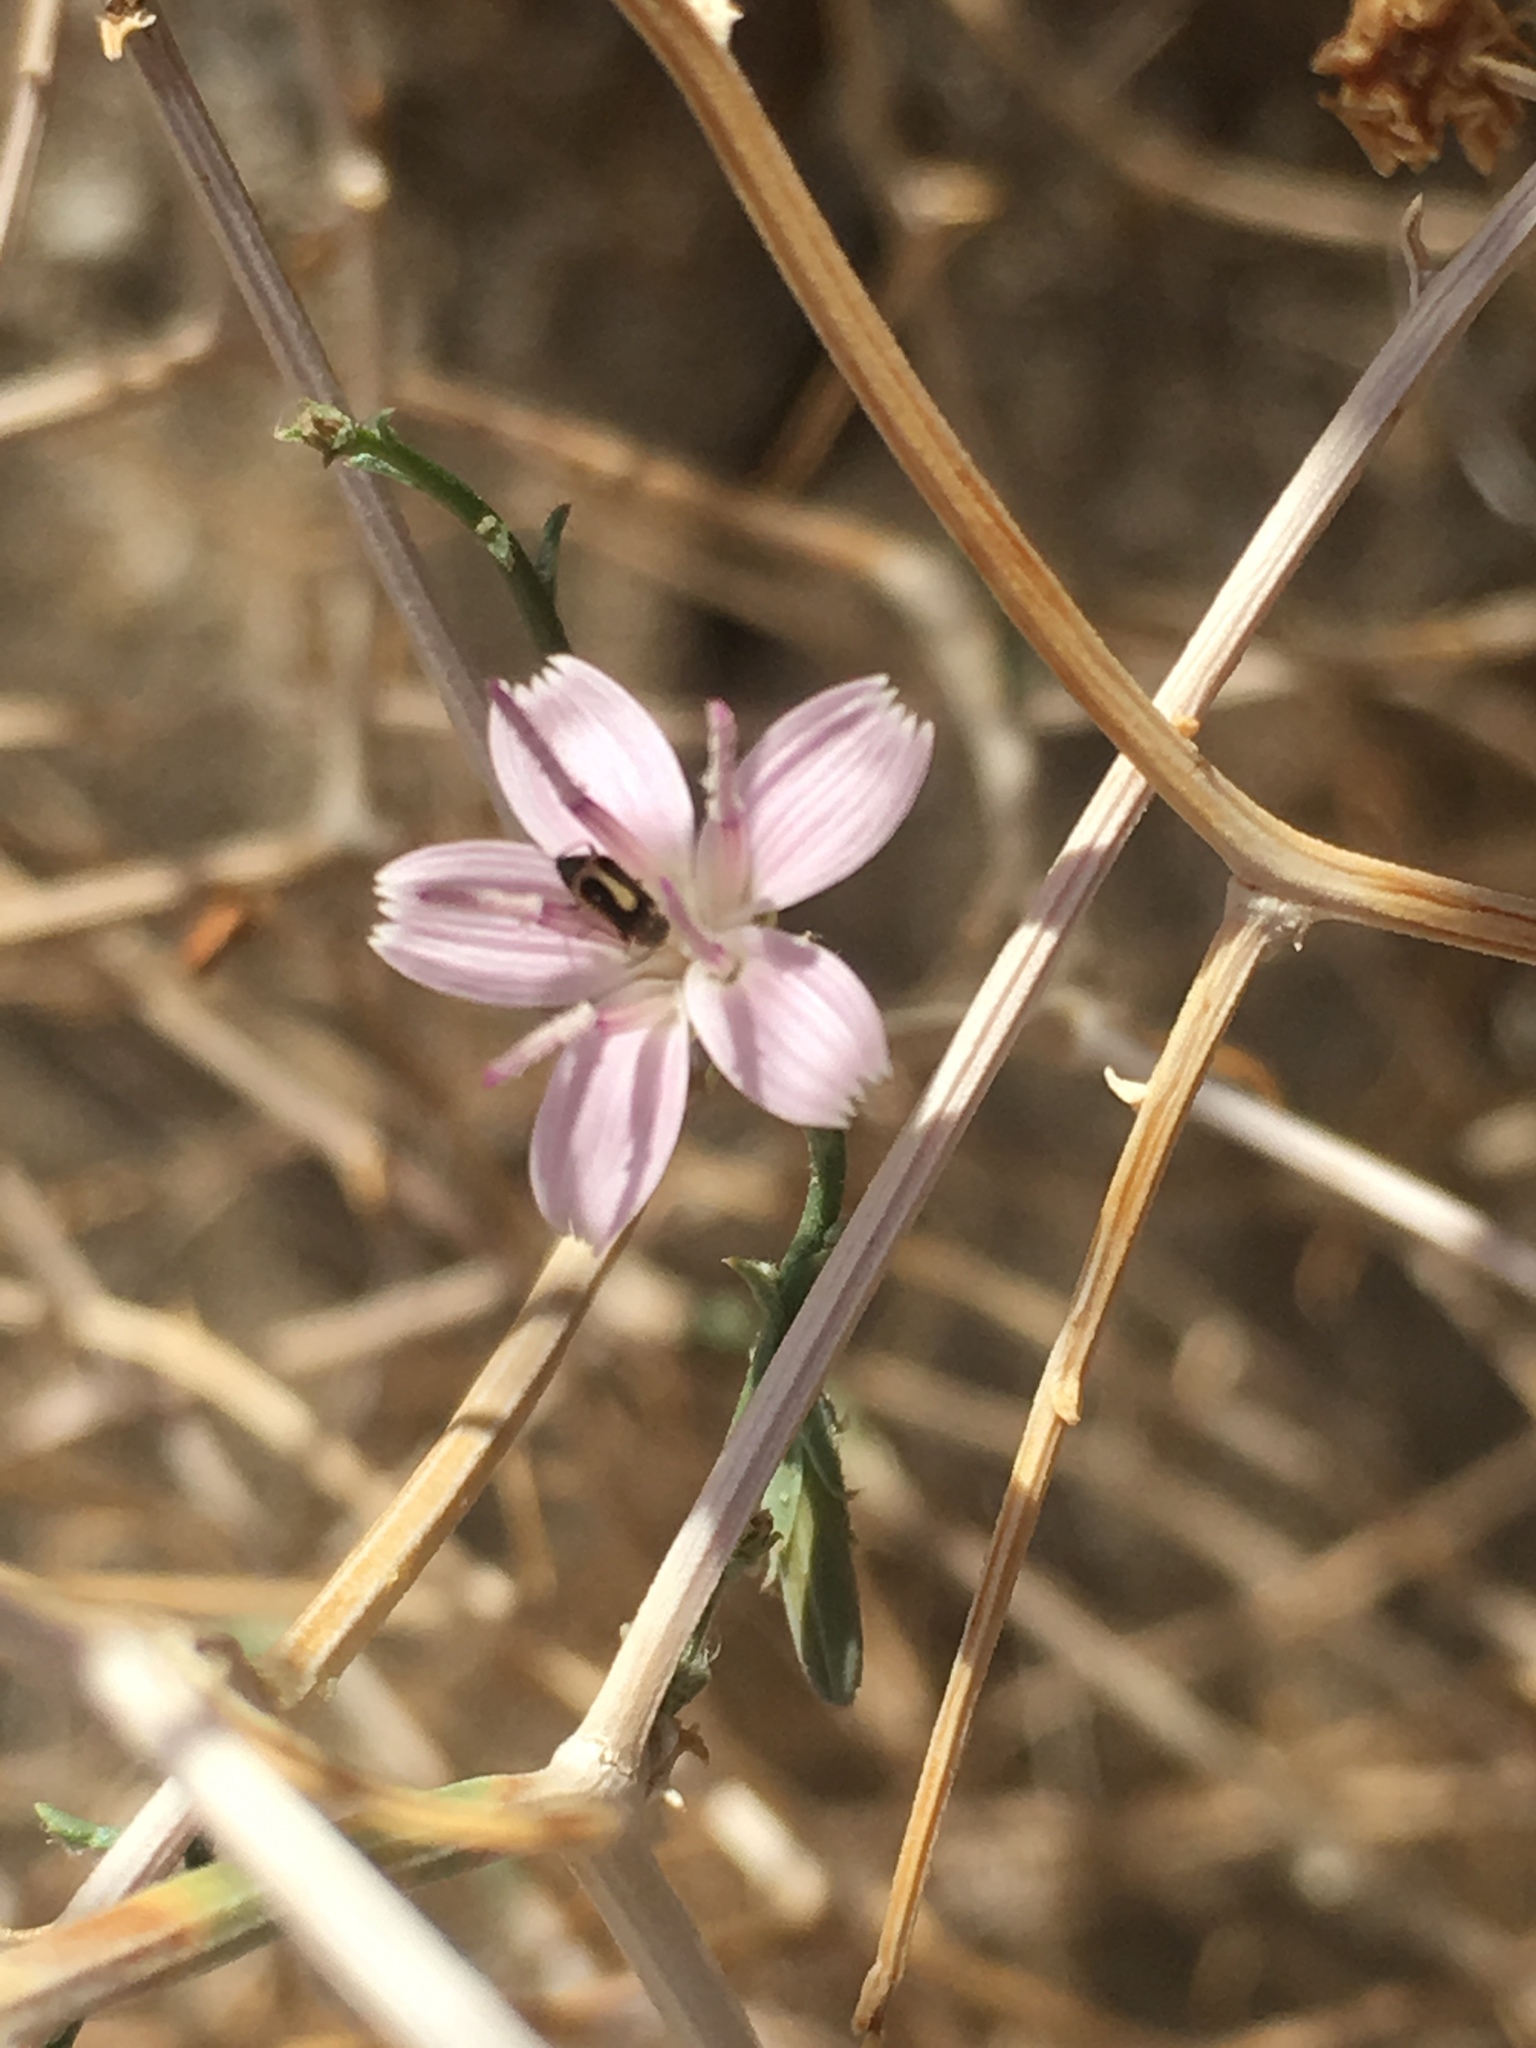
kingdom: Plantae
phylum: Tracheophyta
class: Magnoliopsida
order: Asterales
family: Asteraceae
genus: Stephanomeria
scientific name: Stephanomeria pauciflora
